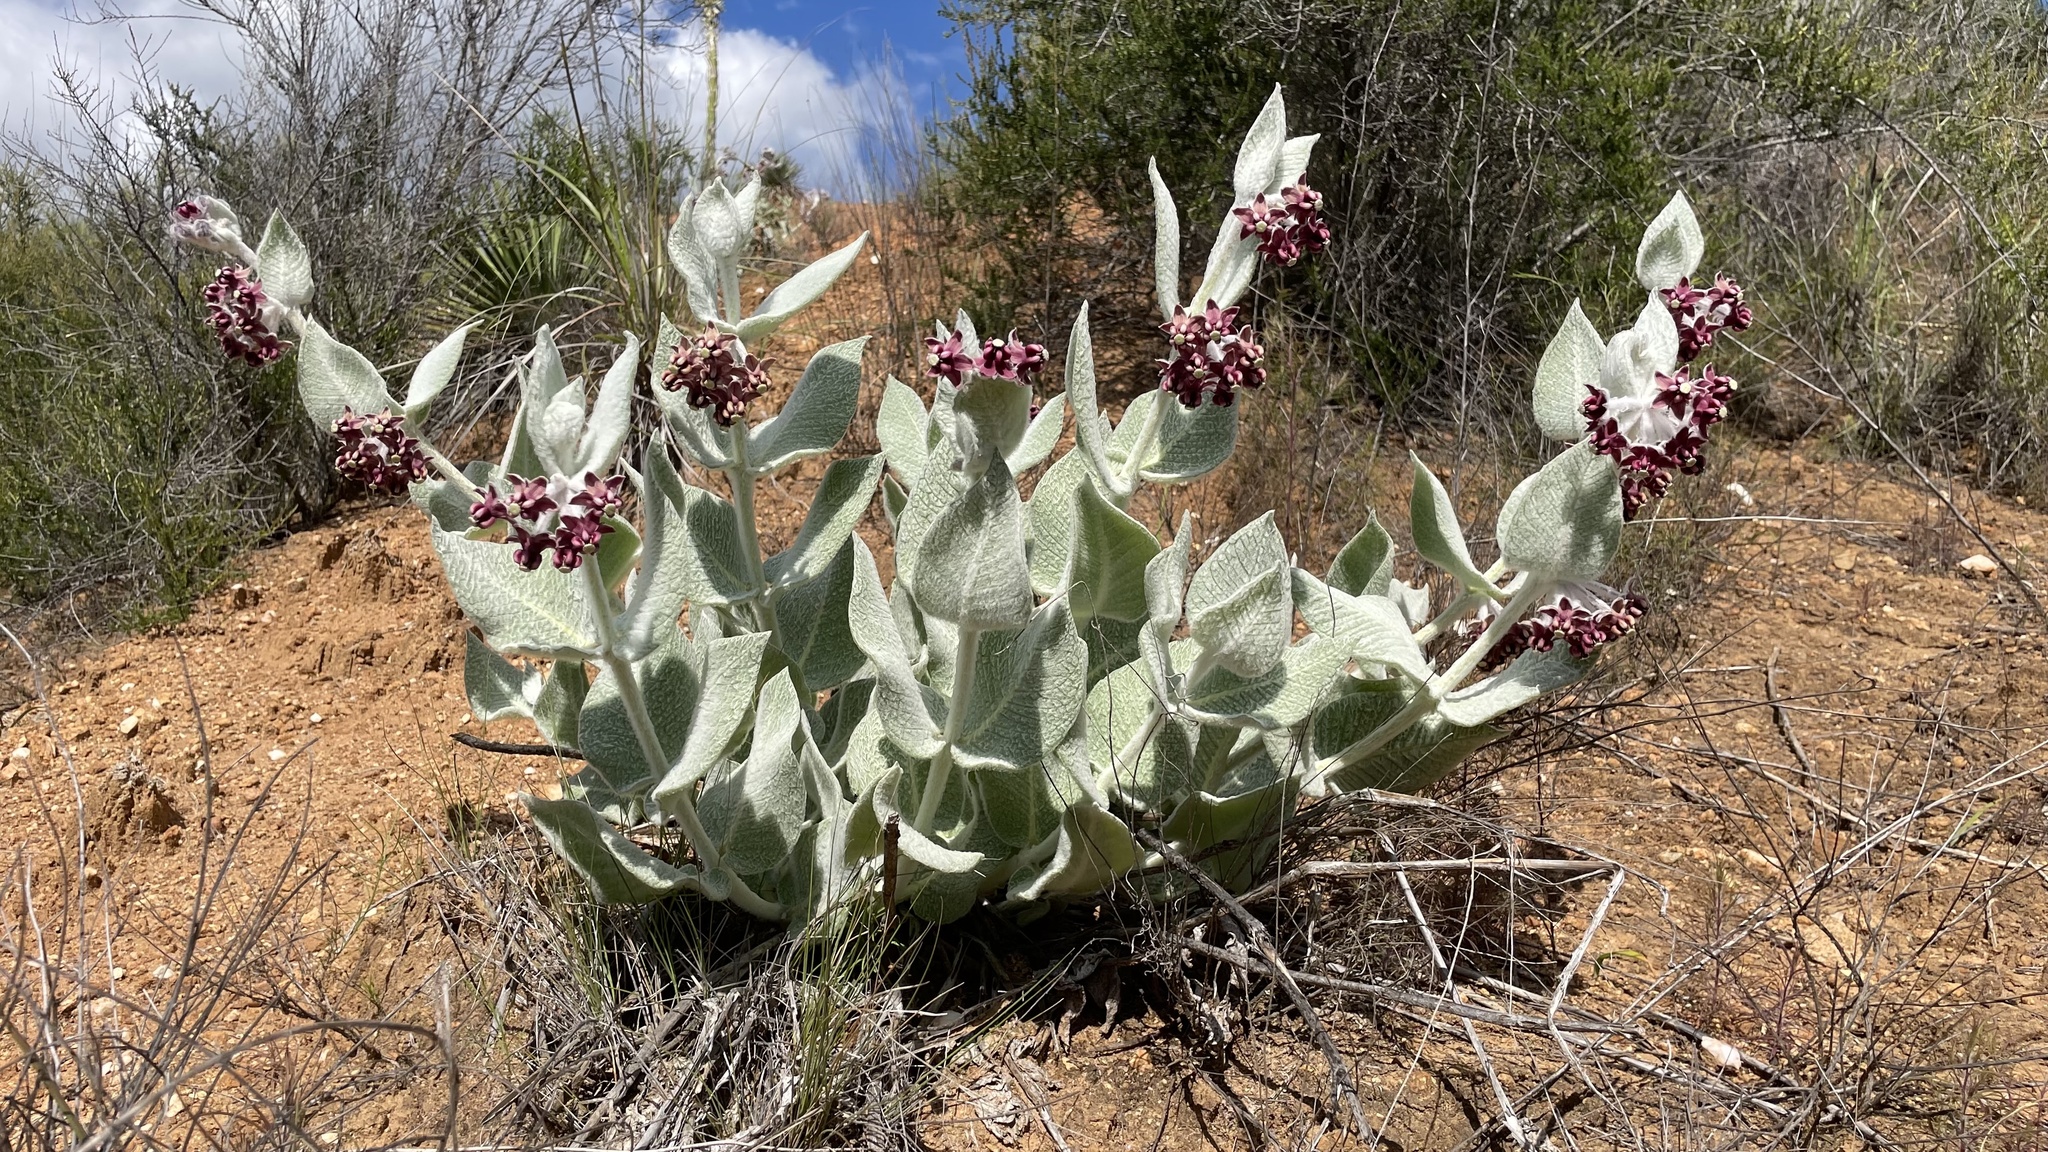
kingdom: Plantae
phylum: Tracheophyta
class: Magnoliopsida
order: Gentianales
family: Apocynaceae
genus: Asclepias
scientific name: Asclepias californica
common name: California milkweed
